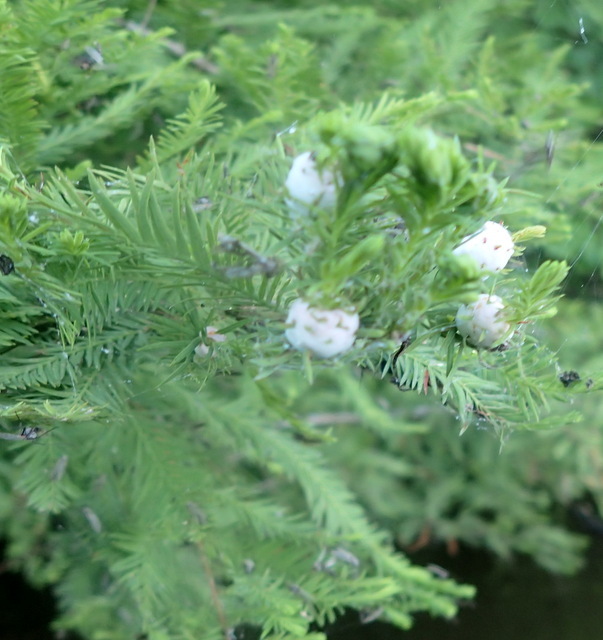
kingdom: Animalia
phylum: Arthropoda
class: Insecta
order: Diptera
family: Cecidomyiidae
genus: Taxodiomyia
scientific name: Taxodiomyia cupressiananassa
